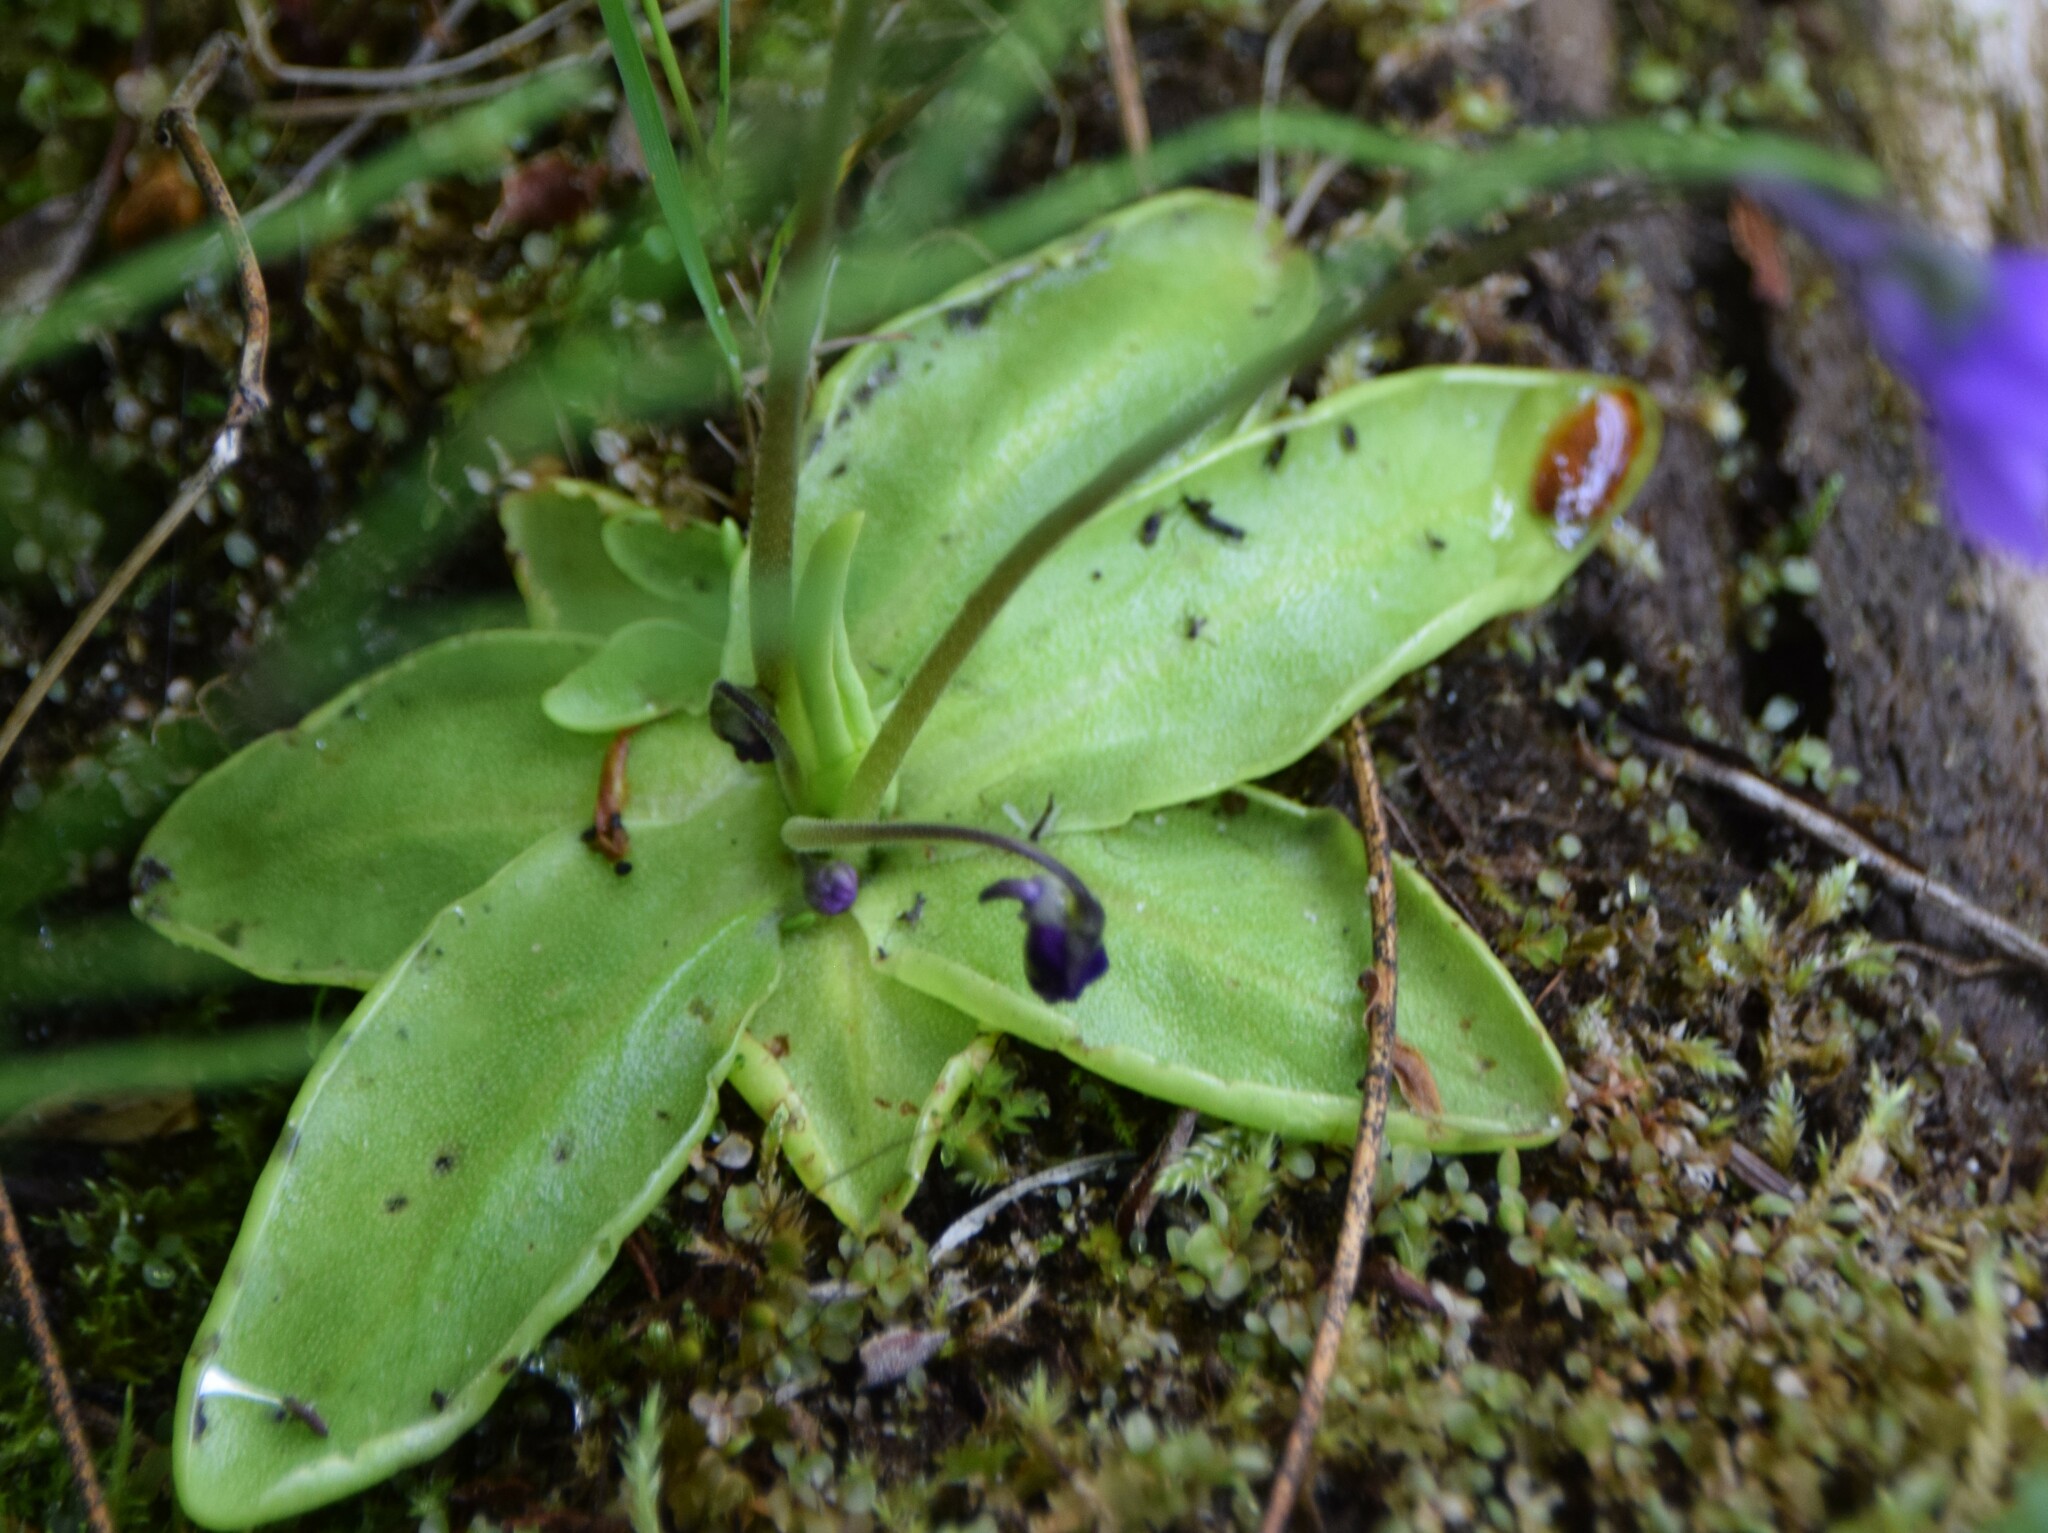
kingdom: Plantae
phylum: Tracheophyta
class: Magnoliopsida
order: Lamiales
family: Lentibulariaceae
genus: Pinguicula
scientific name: Pinguicula vulgaris
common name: Common butterwort
